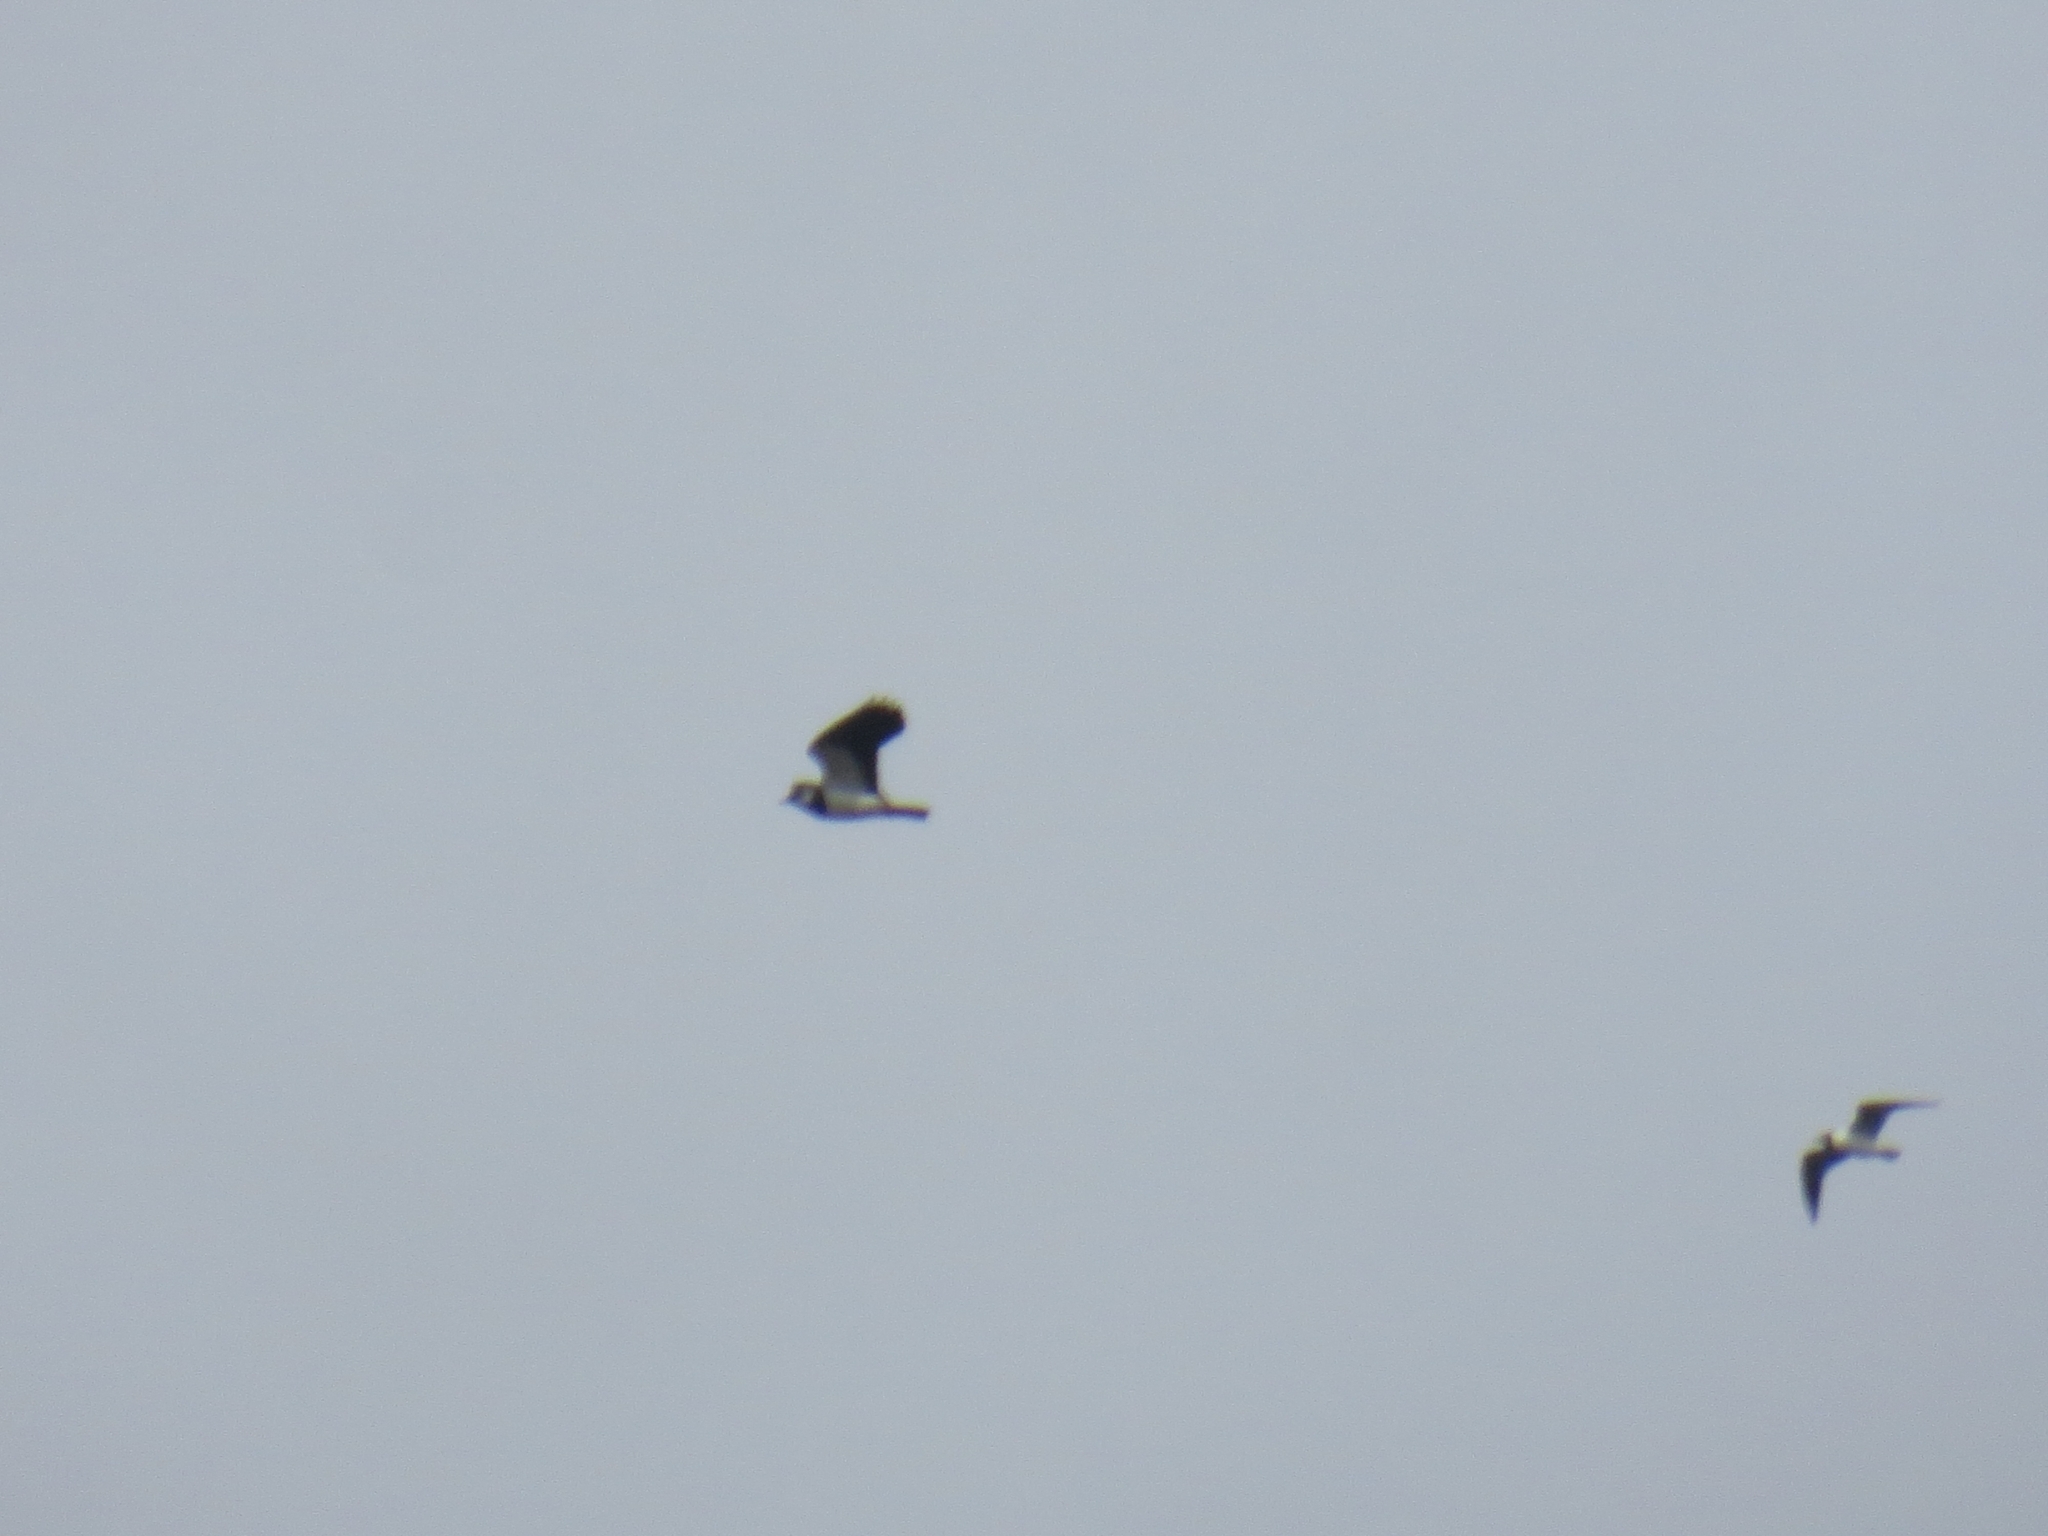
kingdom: Animalia
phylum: Chordata
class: Aves
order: Charadriiformes
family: Charadriidae
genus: Vanellus
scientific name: Vanellus vanellus
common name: Northern lapwing
